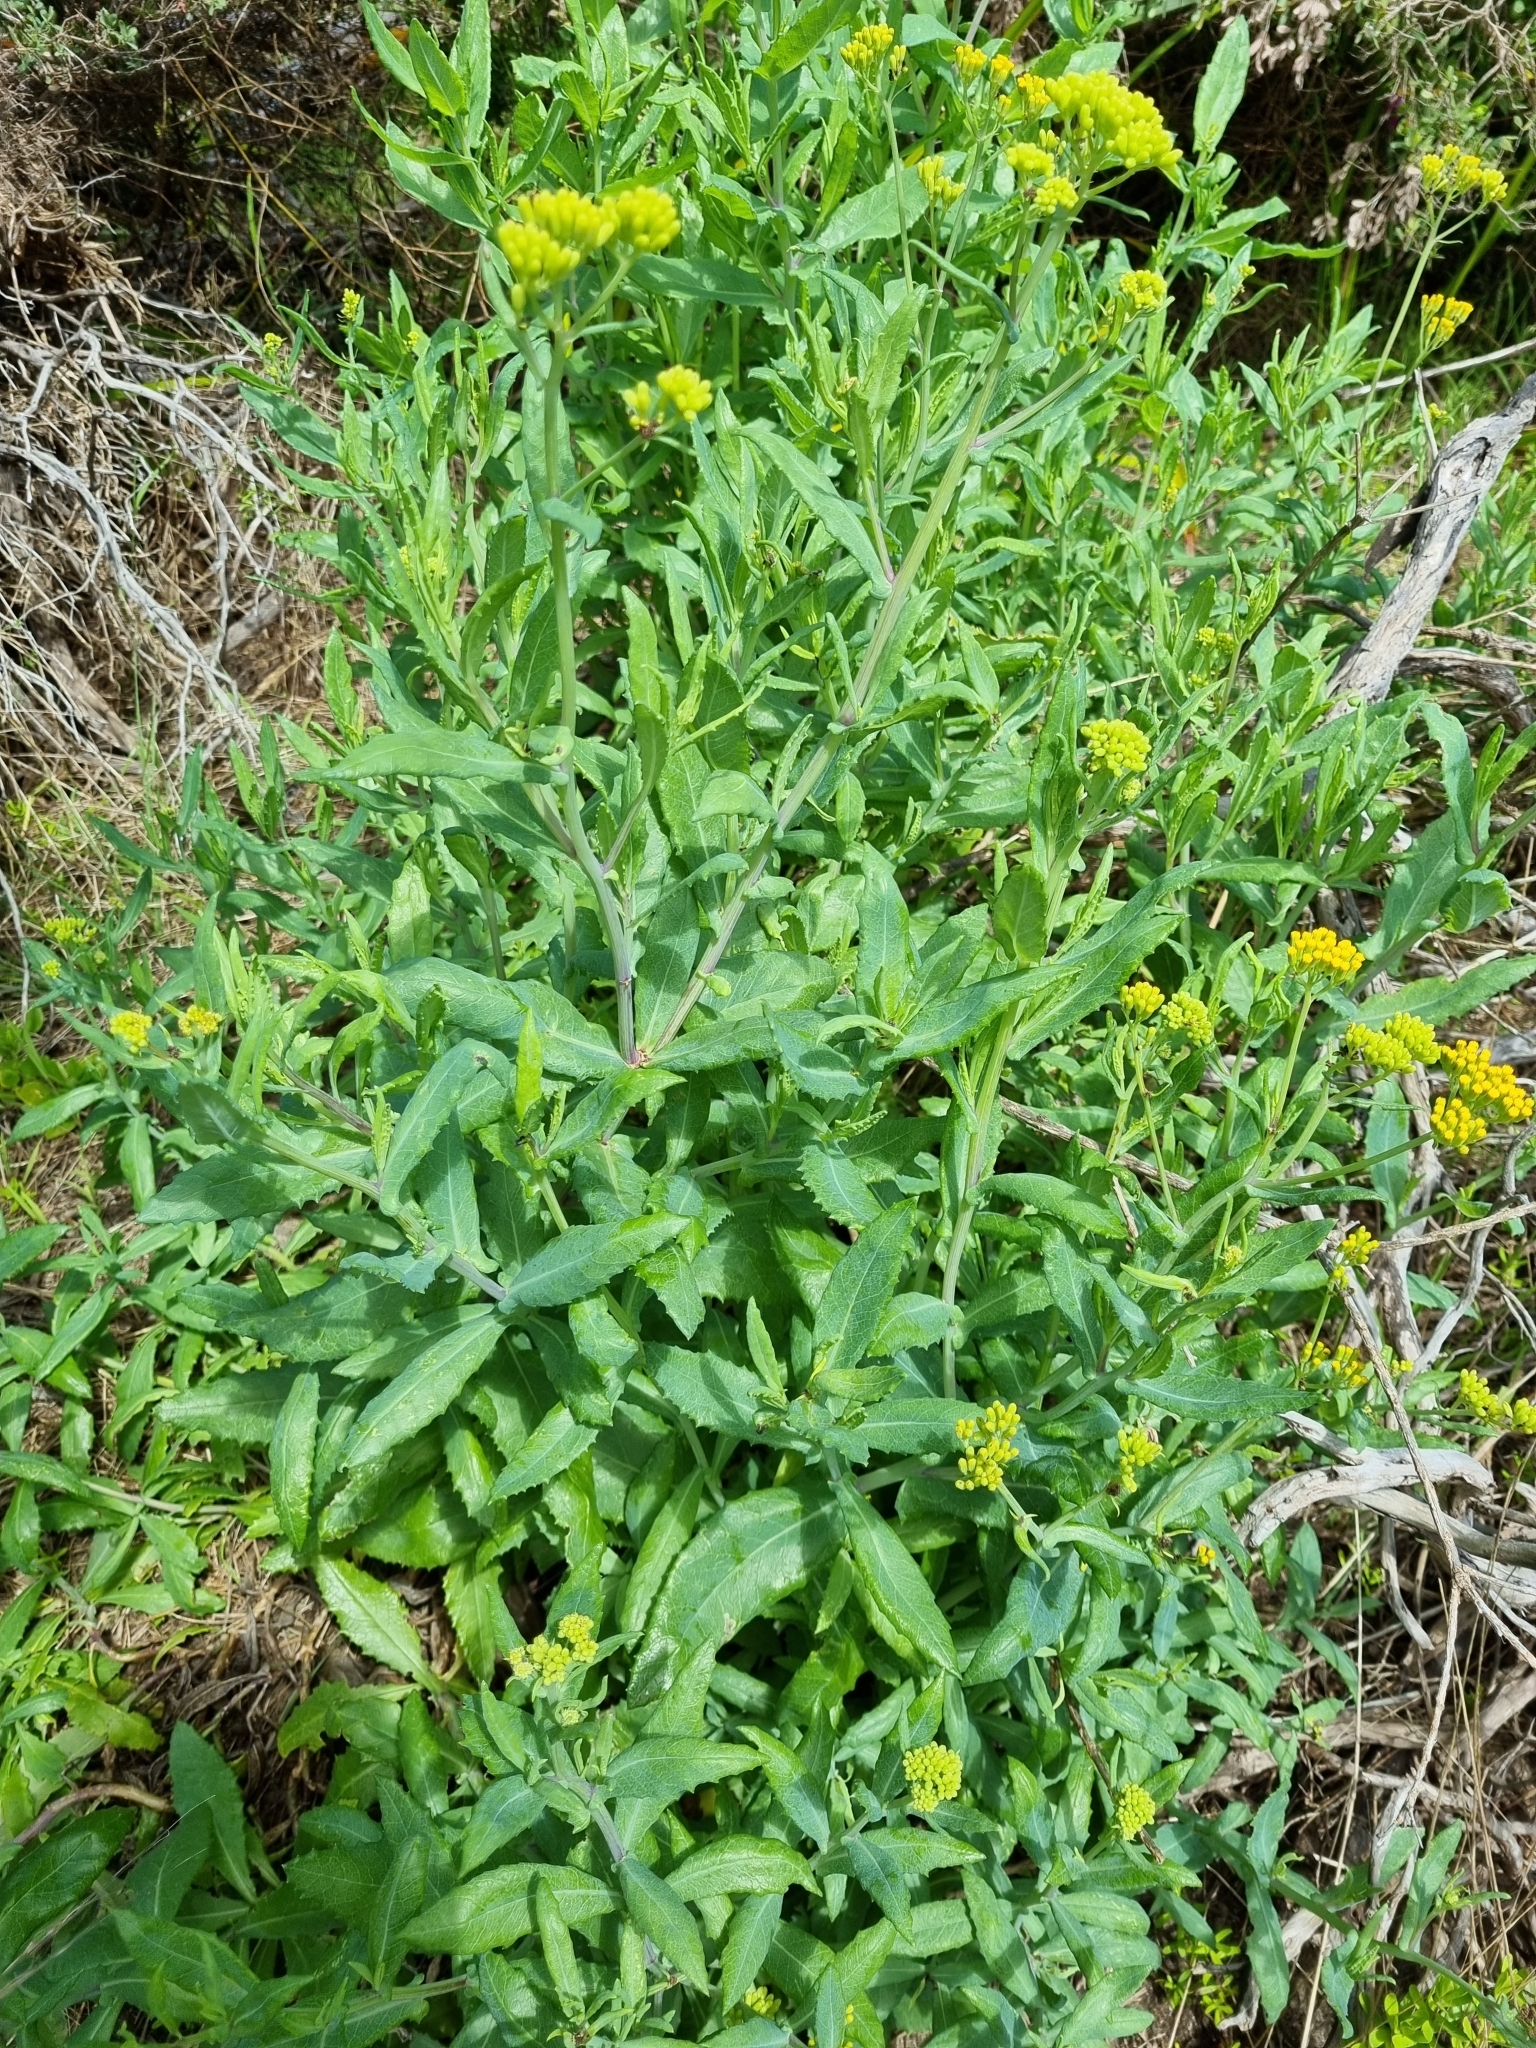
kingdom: Plantae
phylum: Tracheophyta
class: Magnoliopsida
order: Asterales
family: Asteraceae
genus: Senecio
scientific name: Senecio odoratus
